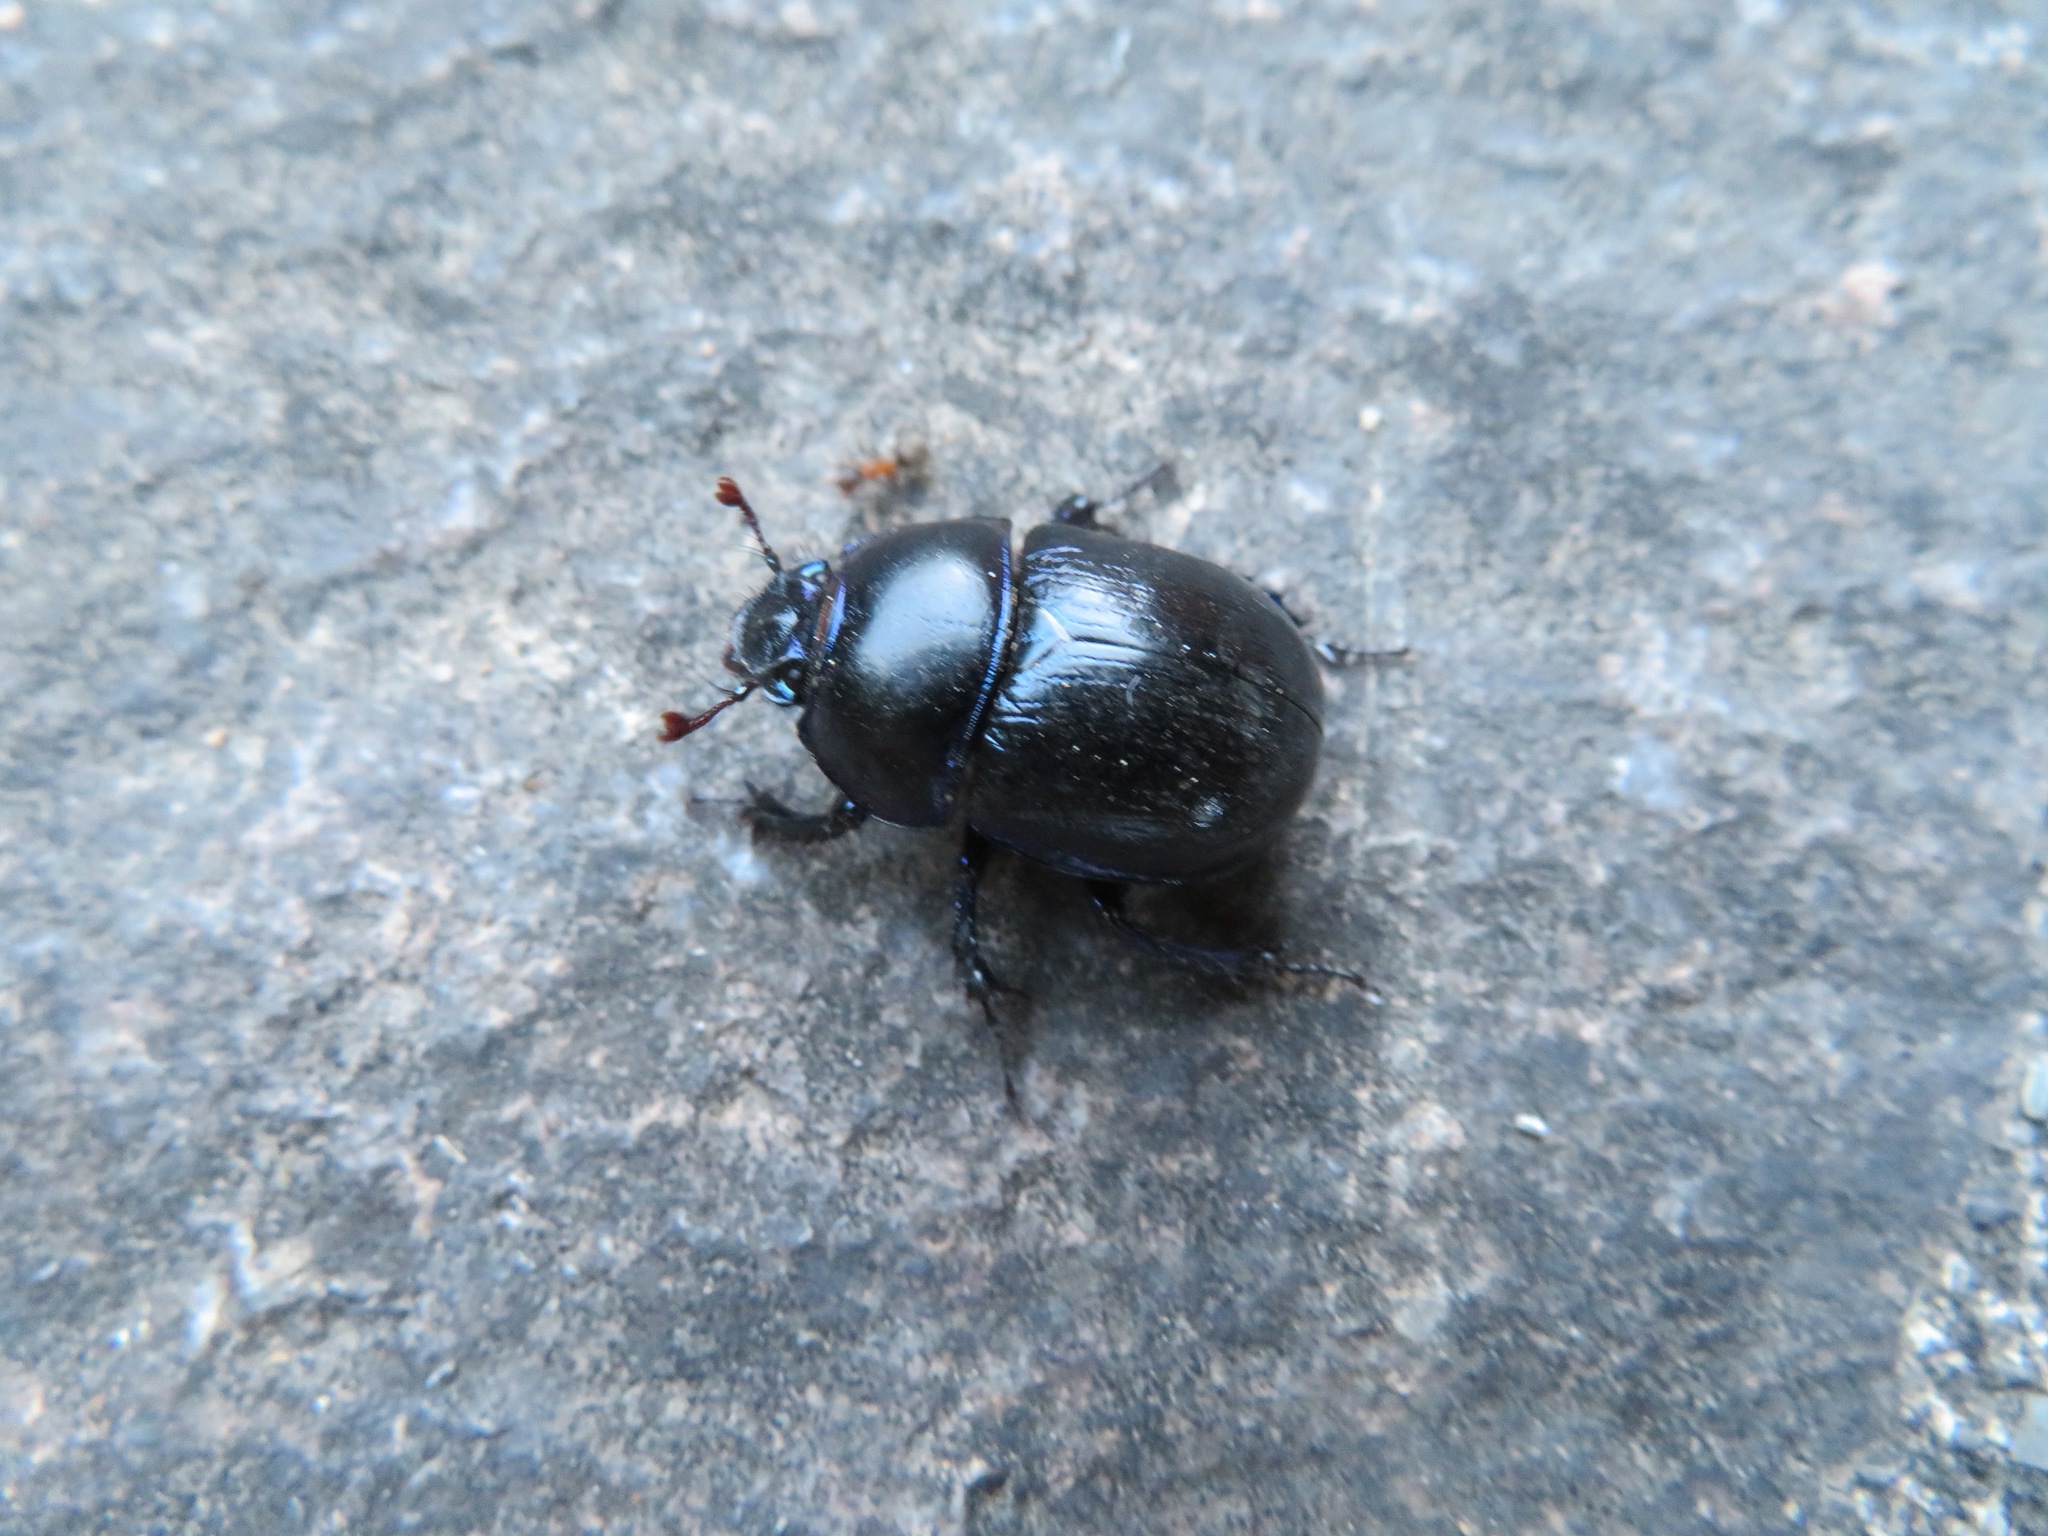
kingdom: Animalia
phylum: Arthropoda
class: Insecta
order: Coleoptera
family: Geotrupidae
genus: Anoplotrupes
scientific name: Anoplotrupes stercorosus
